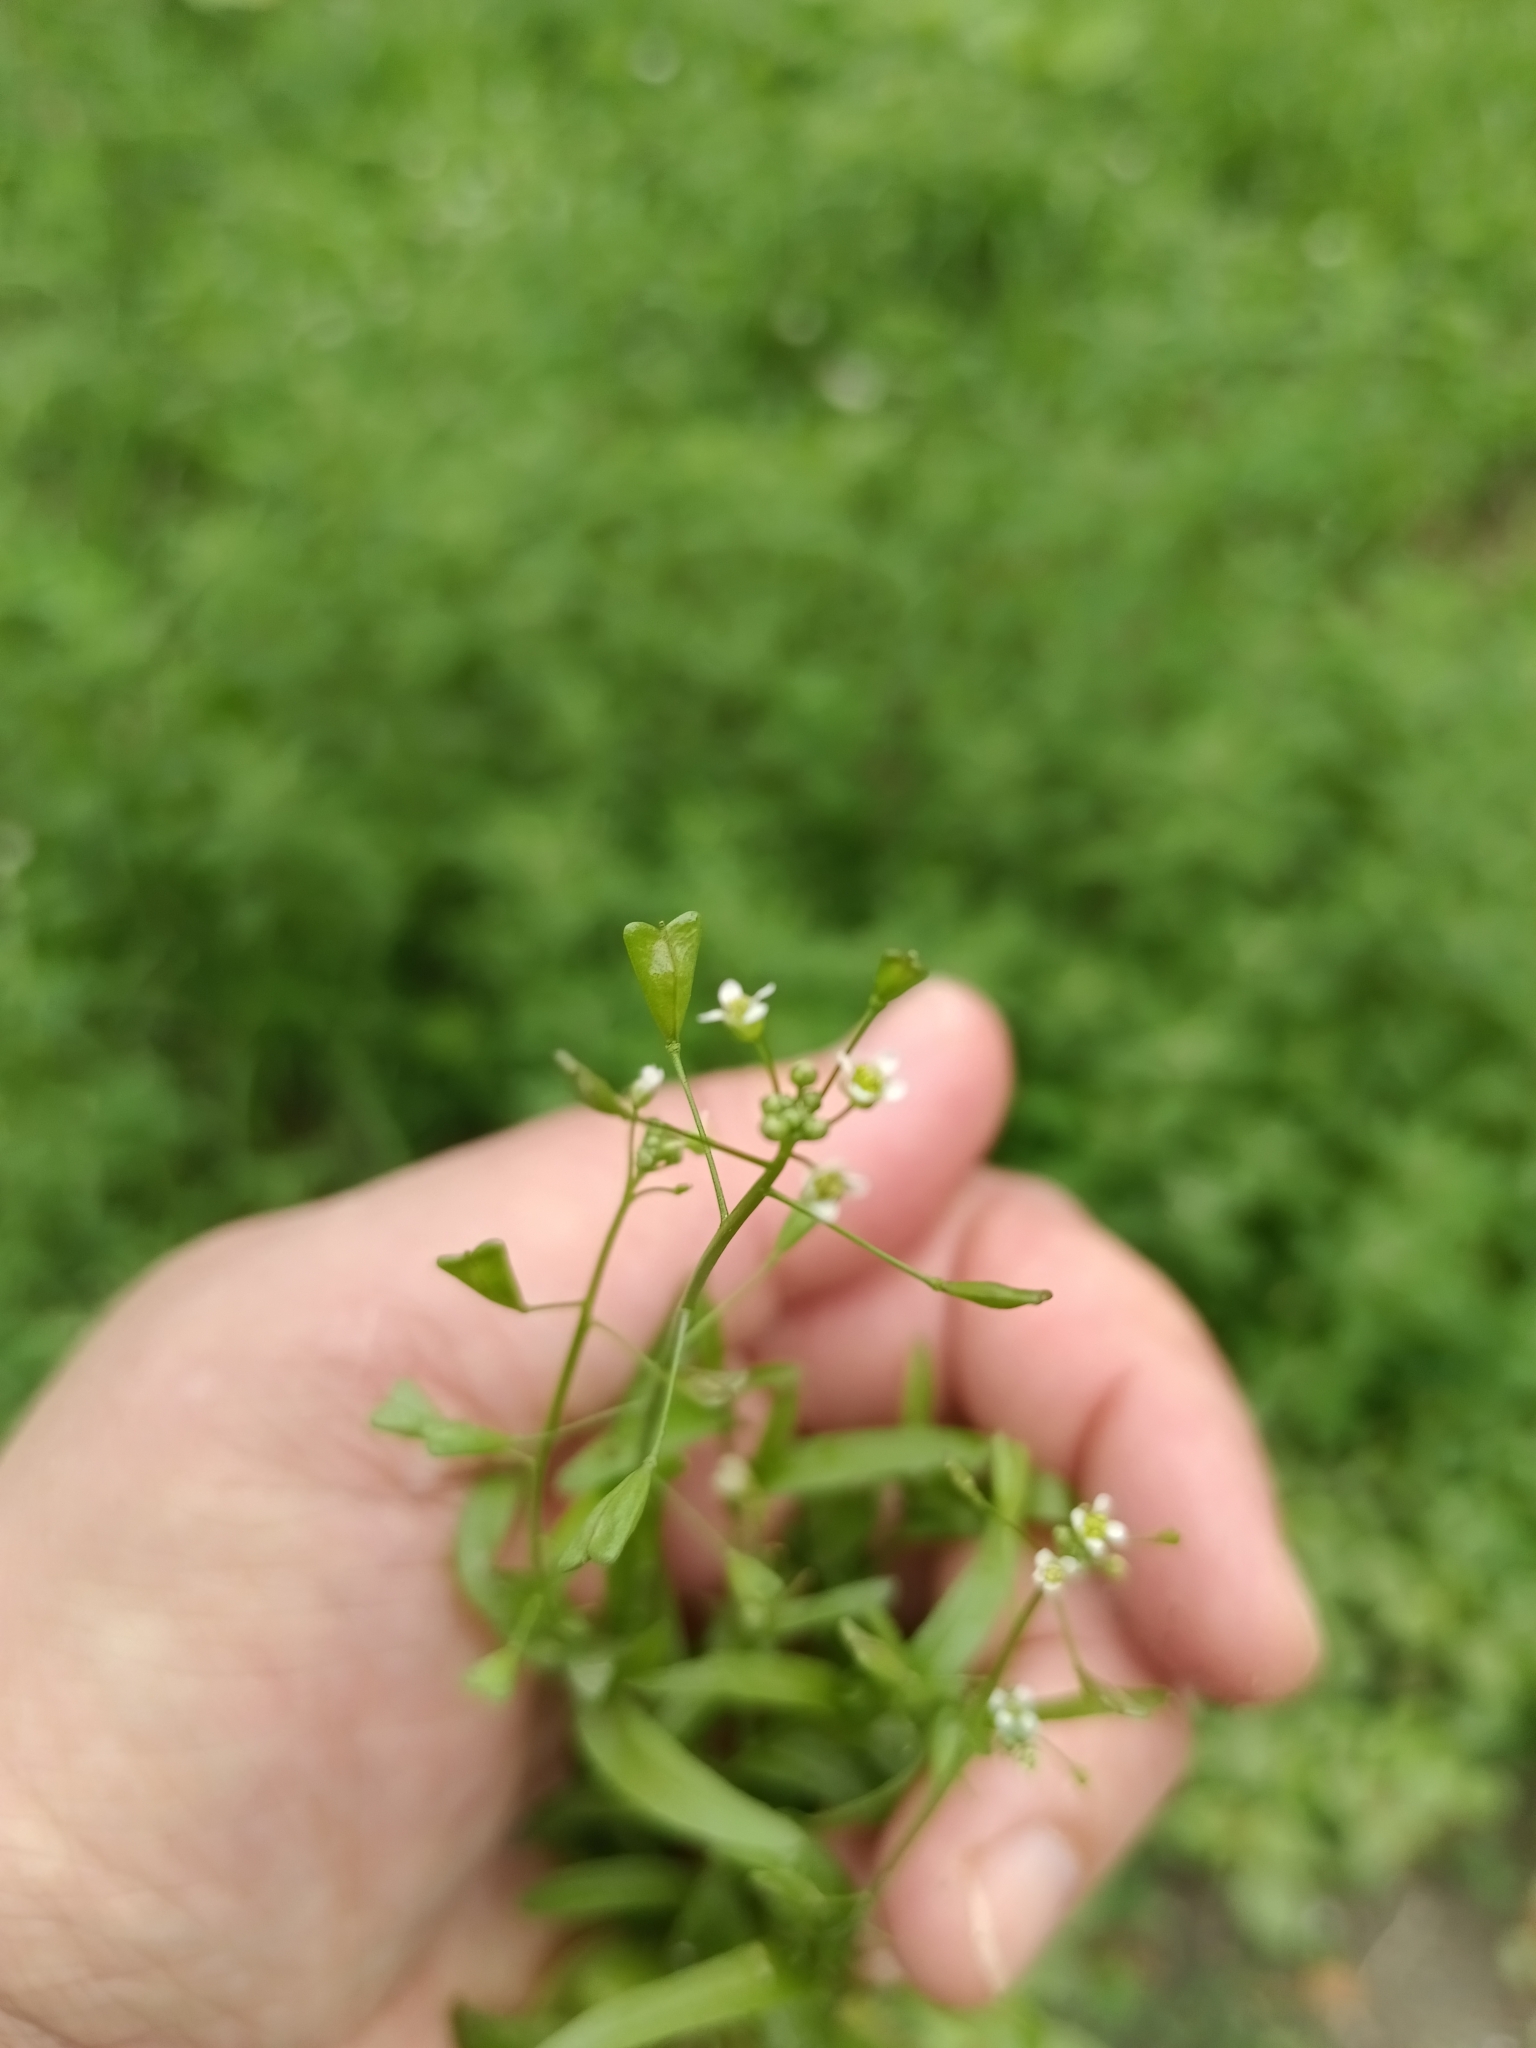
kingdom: Plantae
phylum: Tracheophyta
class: Magnoliopsida
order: Brassicales
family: Brassicaceae
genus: Capsella
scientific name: Capsella bursa-pastoris
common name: Shepherd's purse
